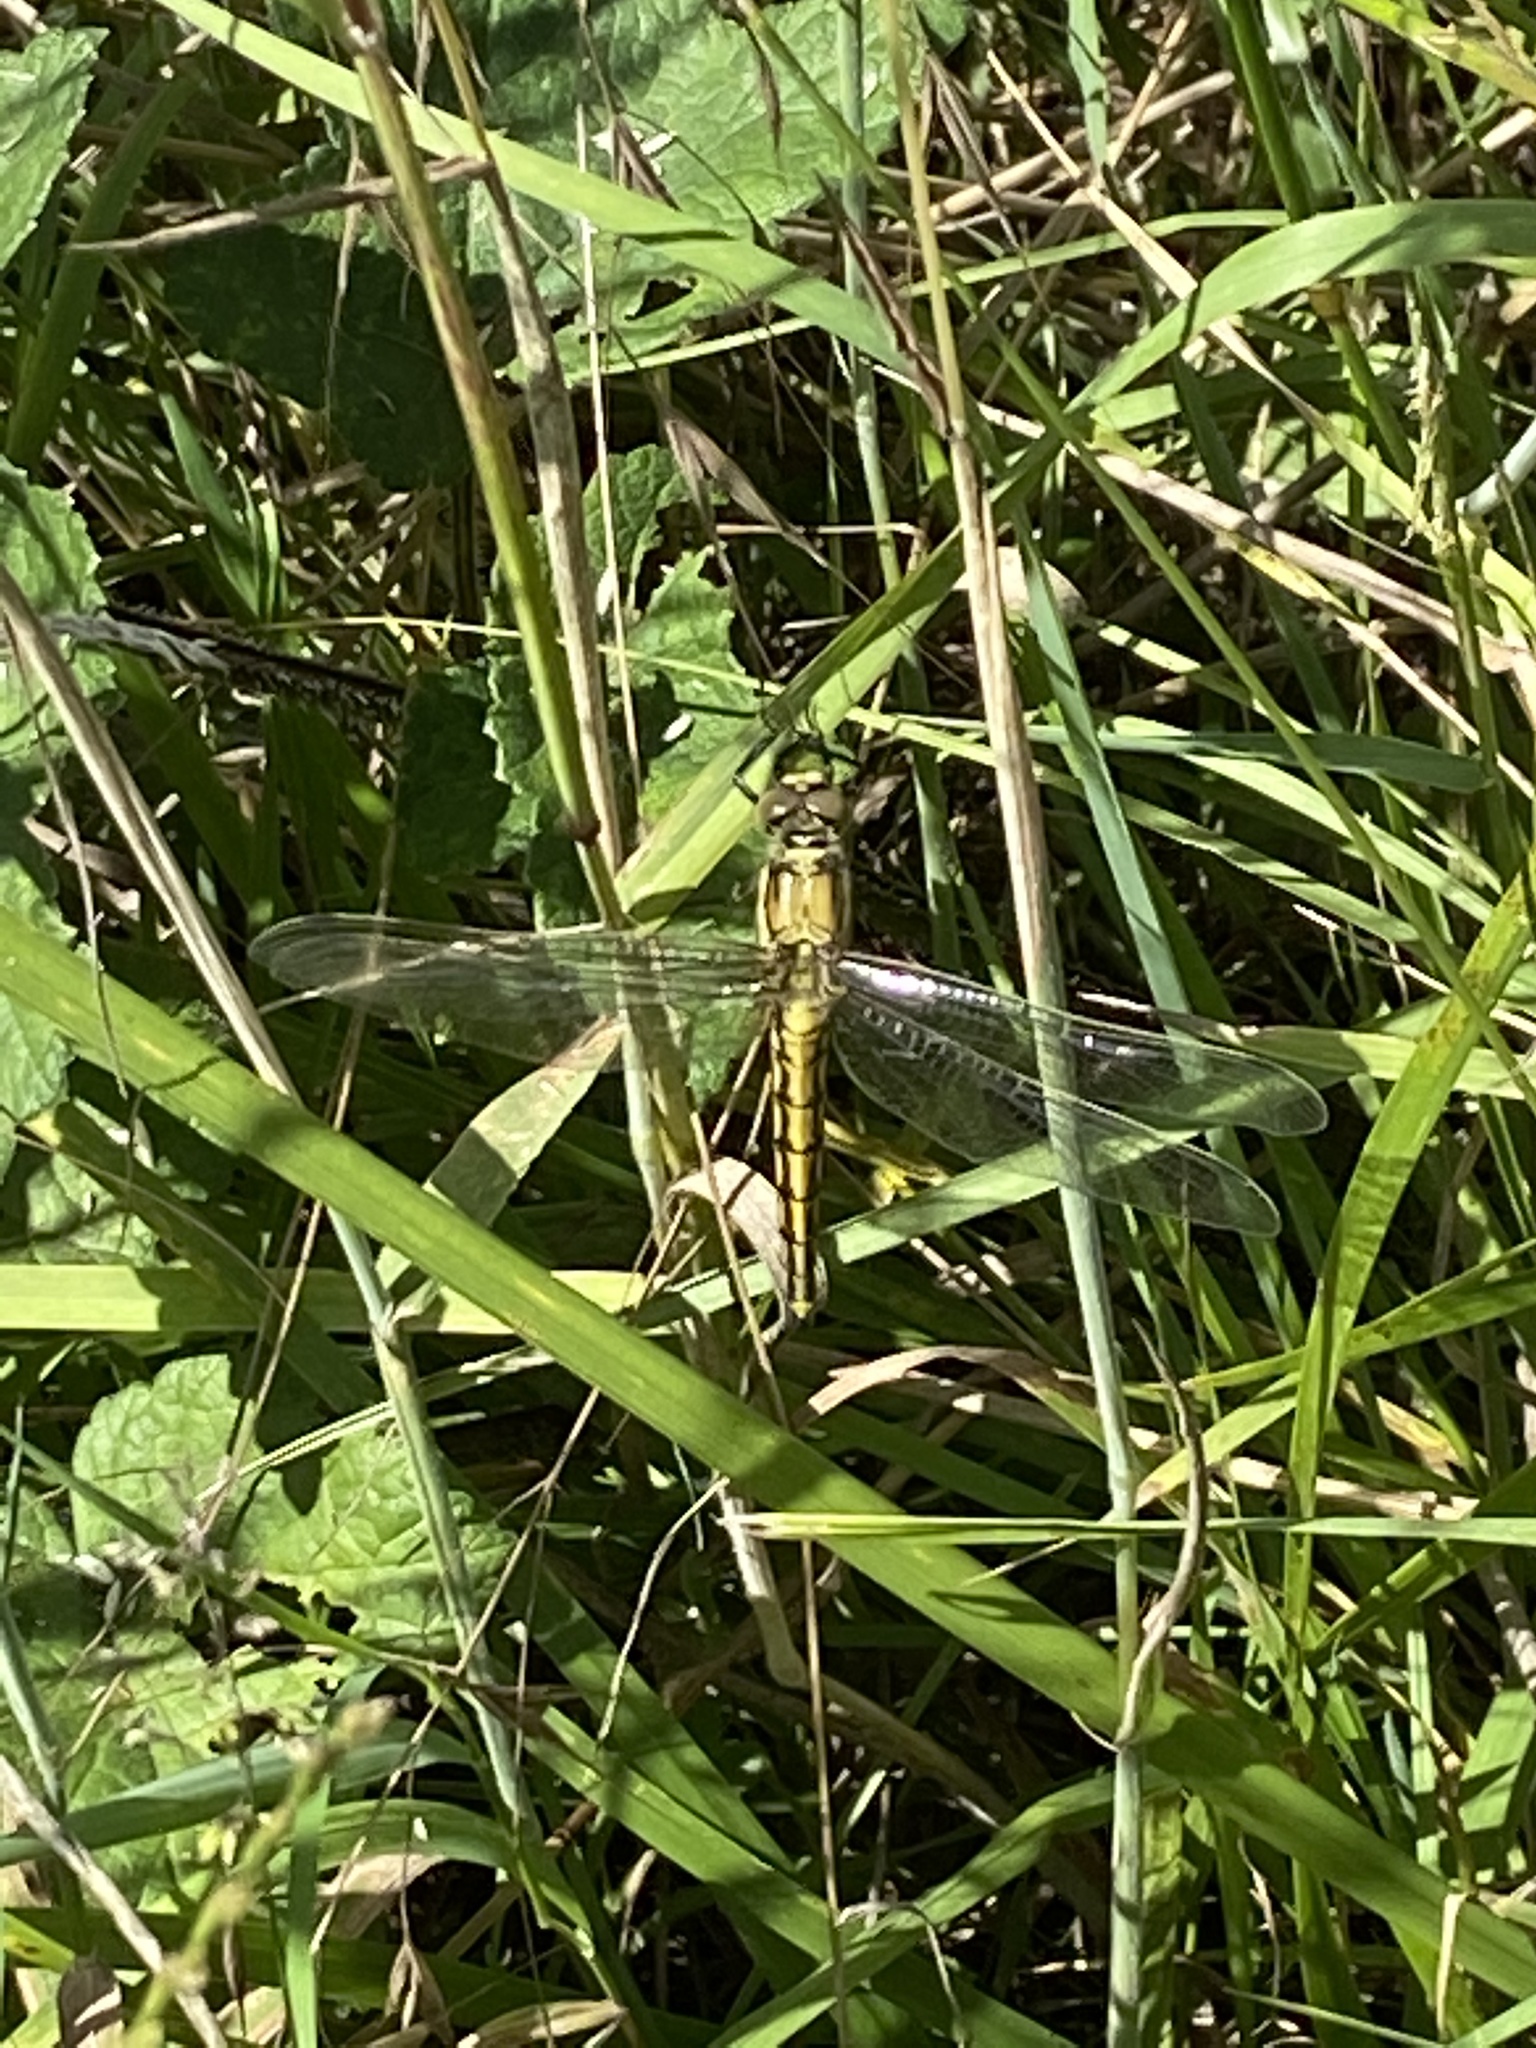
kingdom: Animalia
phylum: Arthropoda
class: Insecta
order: Odonata
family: Libellulidae
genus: Orthetrum
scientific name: Orthetrum cancellatum
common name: Black-tailed skimmer
